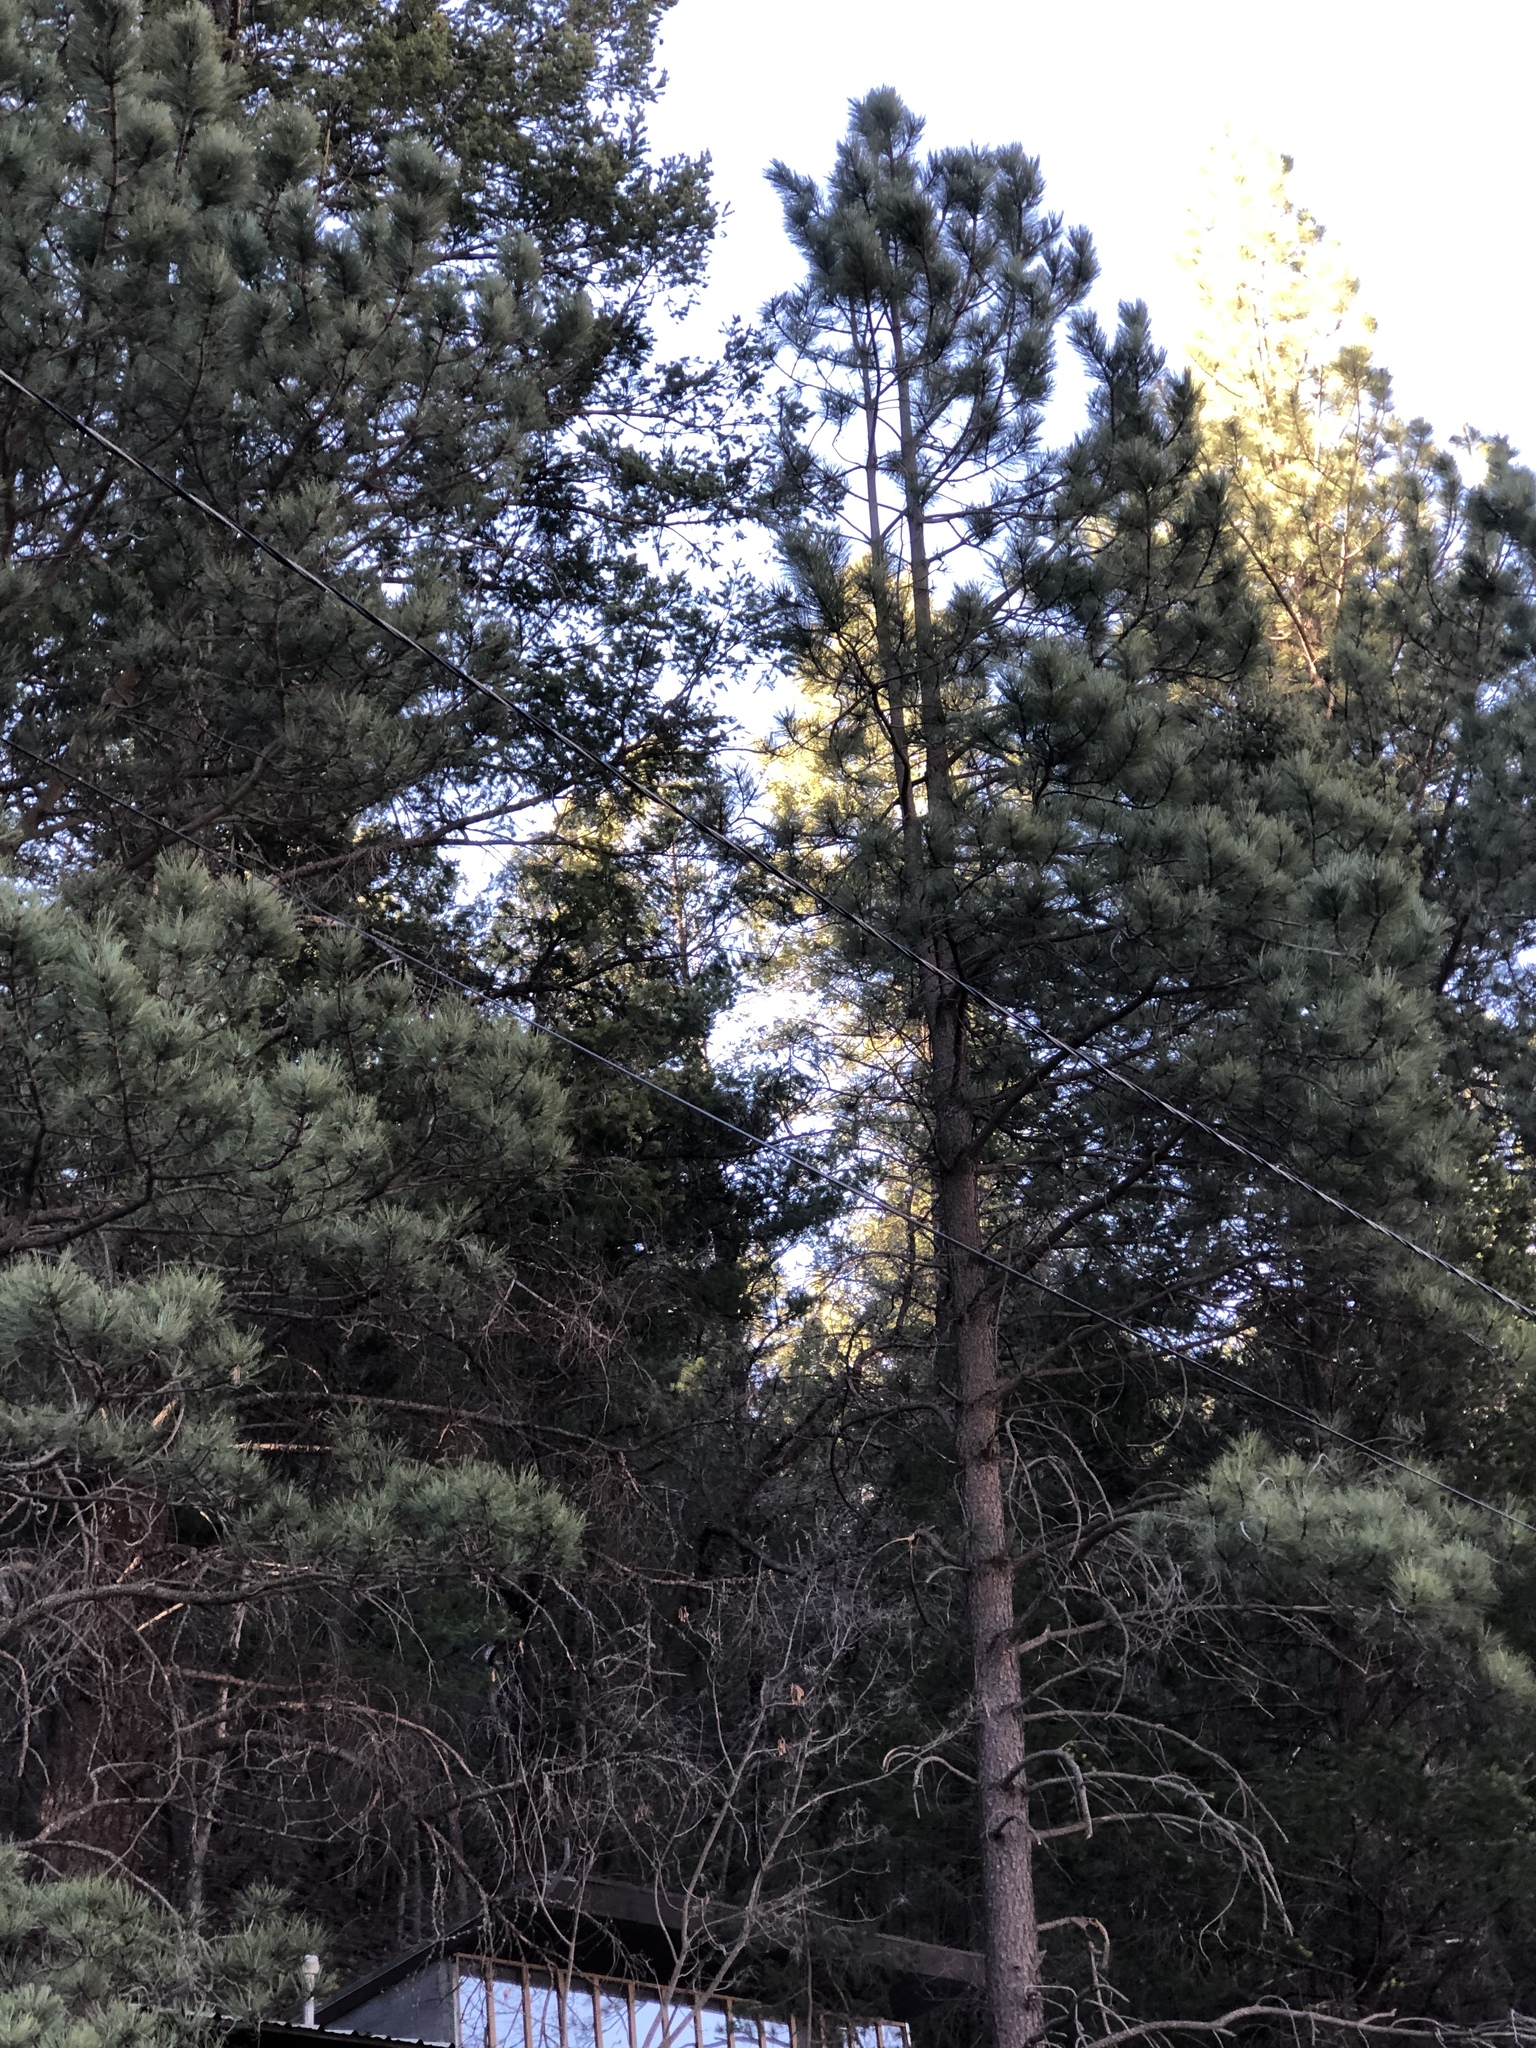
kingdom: Plantae
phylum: Tracheophyta
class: Pinopsida
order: Pinales
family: Pinaceae
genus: Pinus
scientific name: Pinus ponderosa
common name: Western yellow-pine
